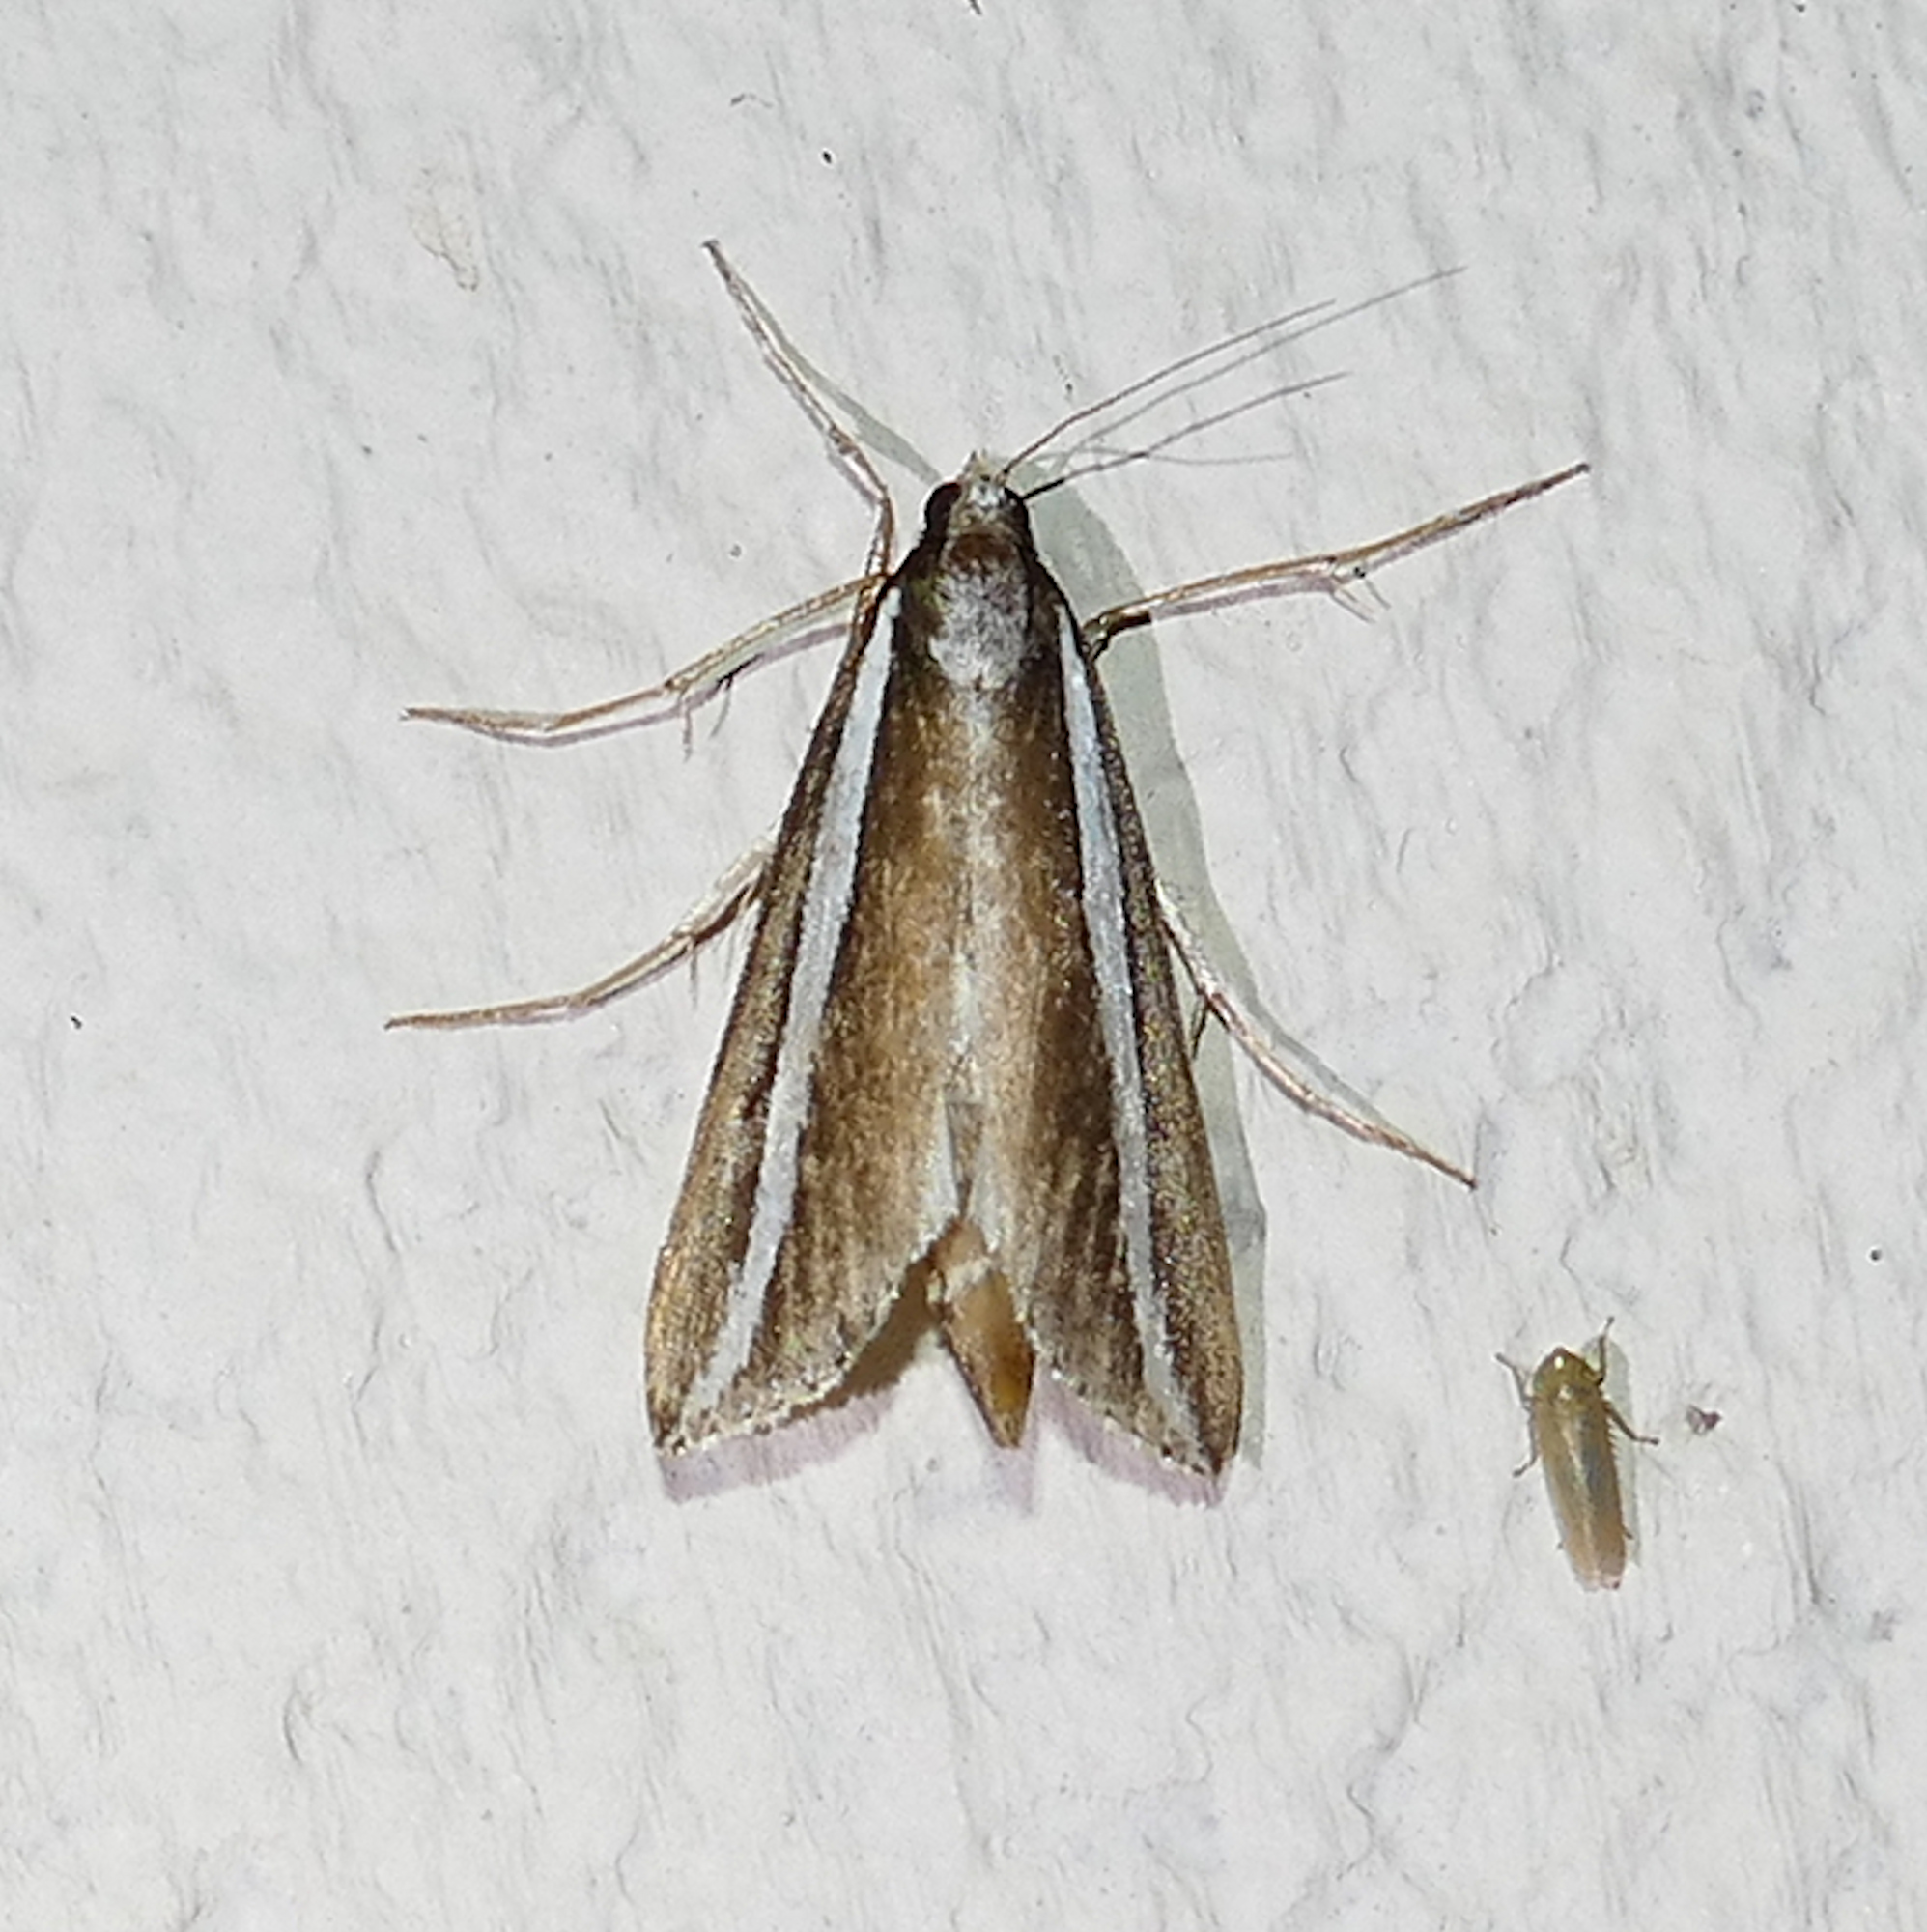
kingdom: Animalia
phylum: Arthropoda
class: Insecta
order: Lepidoptera
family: Crambidae
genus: Carectocultus
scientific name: Carectocultus perstrialis
